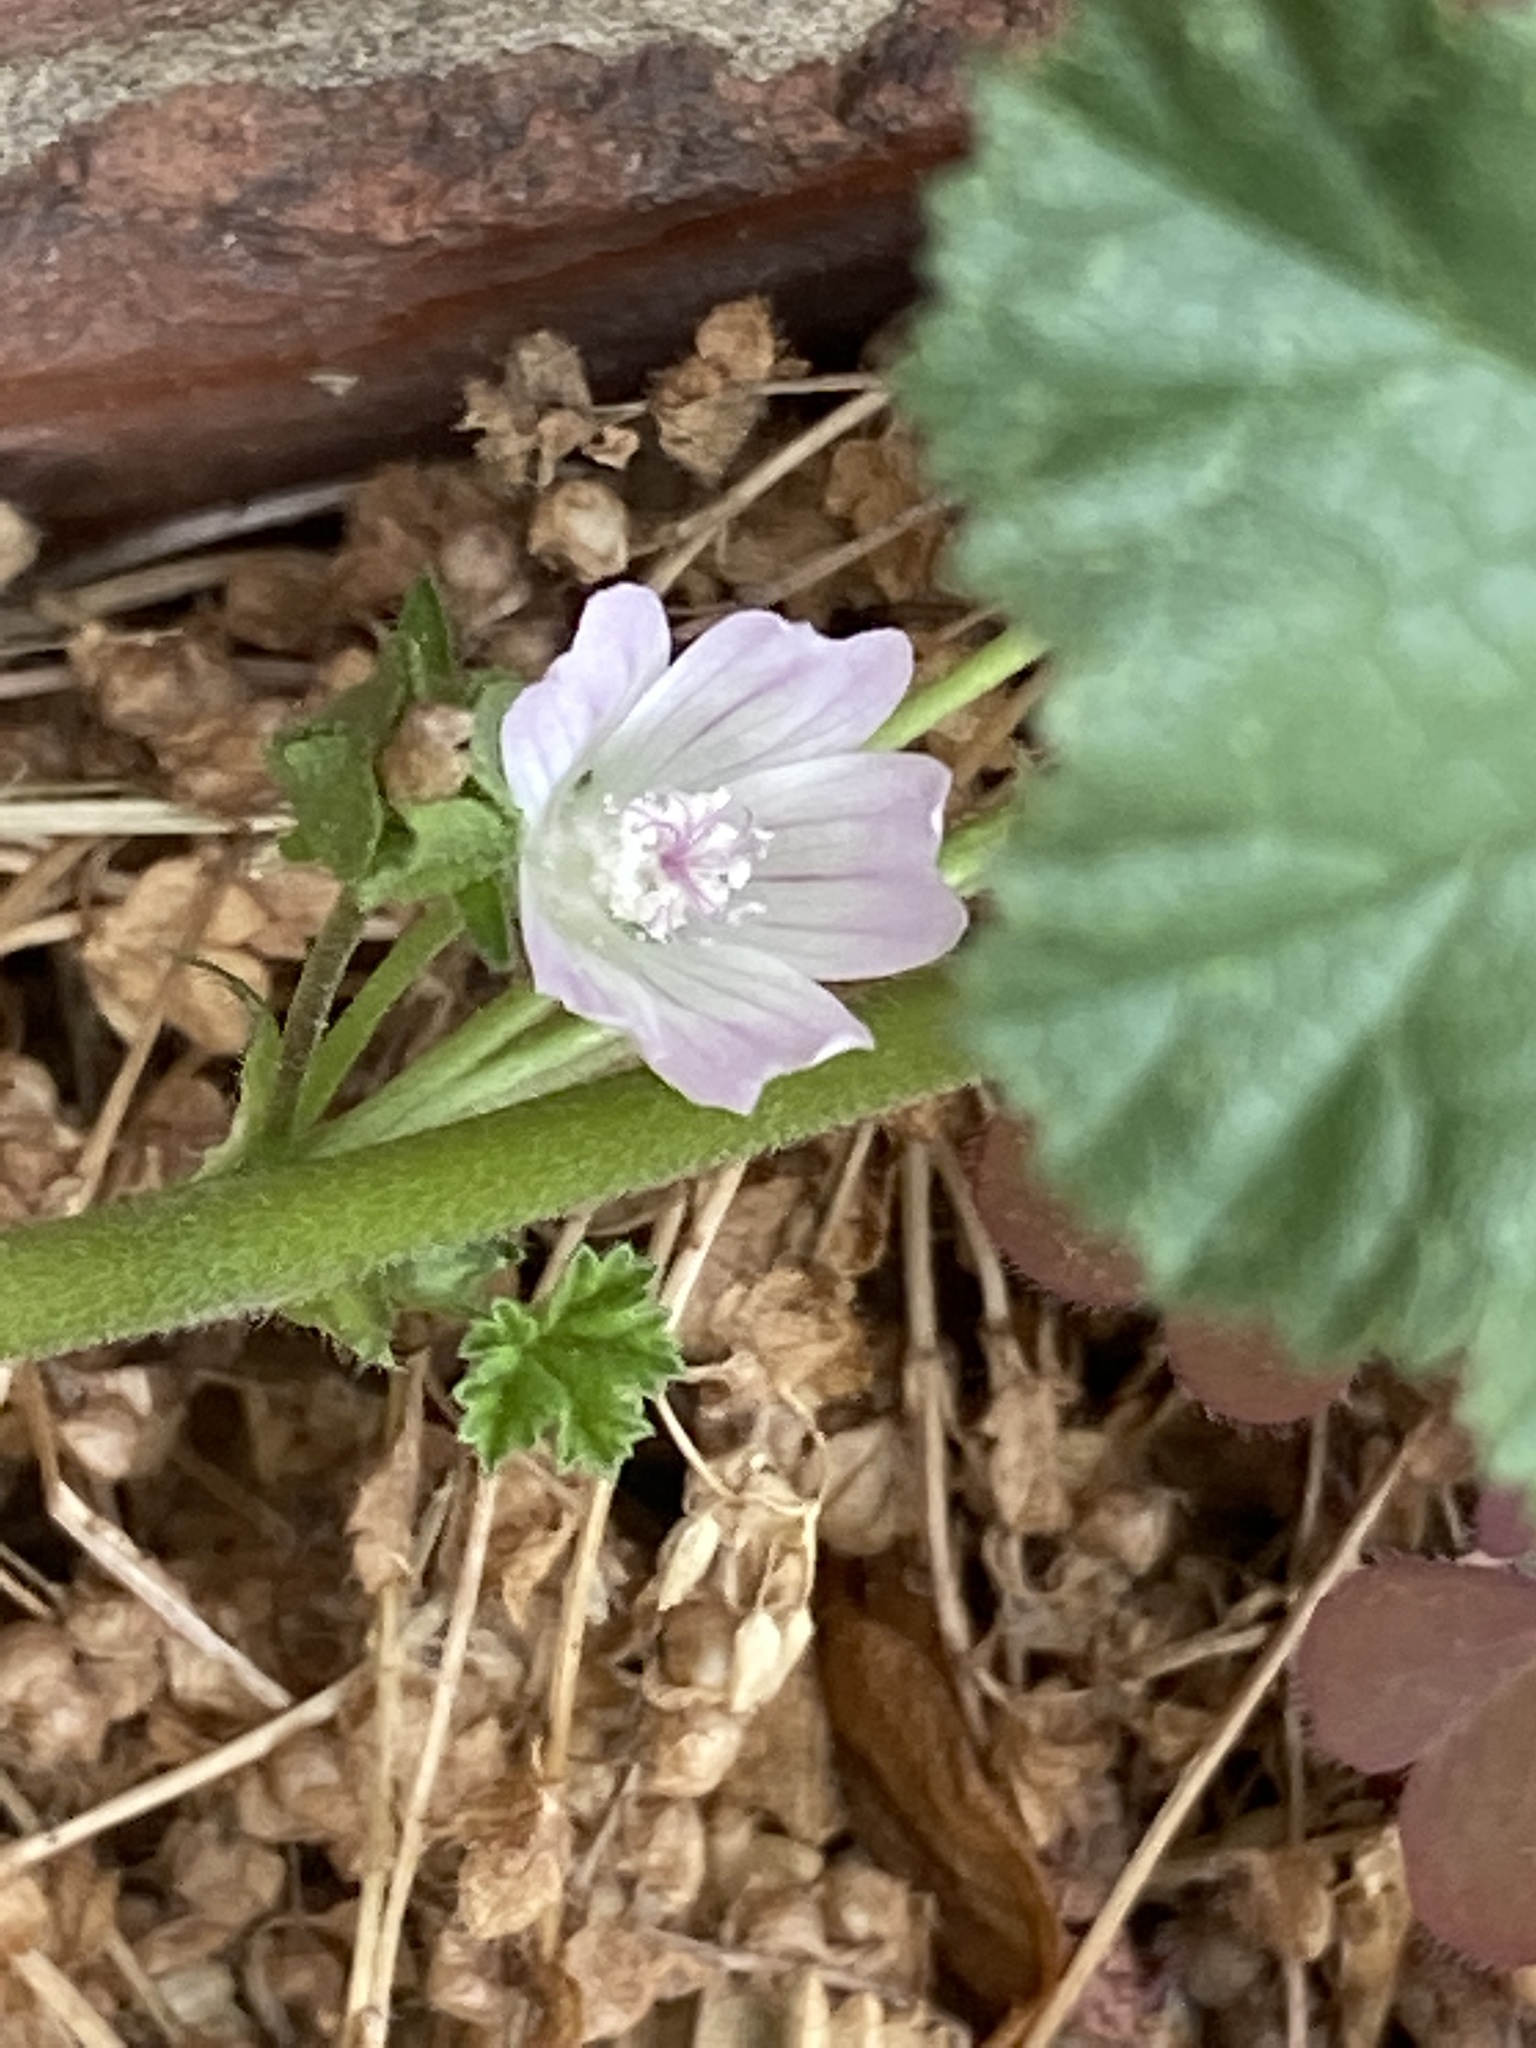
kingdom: Plantae
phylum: Tracheophyta
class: Magnoliopsida
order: Malvales
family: Malvaceae
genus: Malva
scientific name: Malva neglecta
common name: Common mallow
